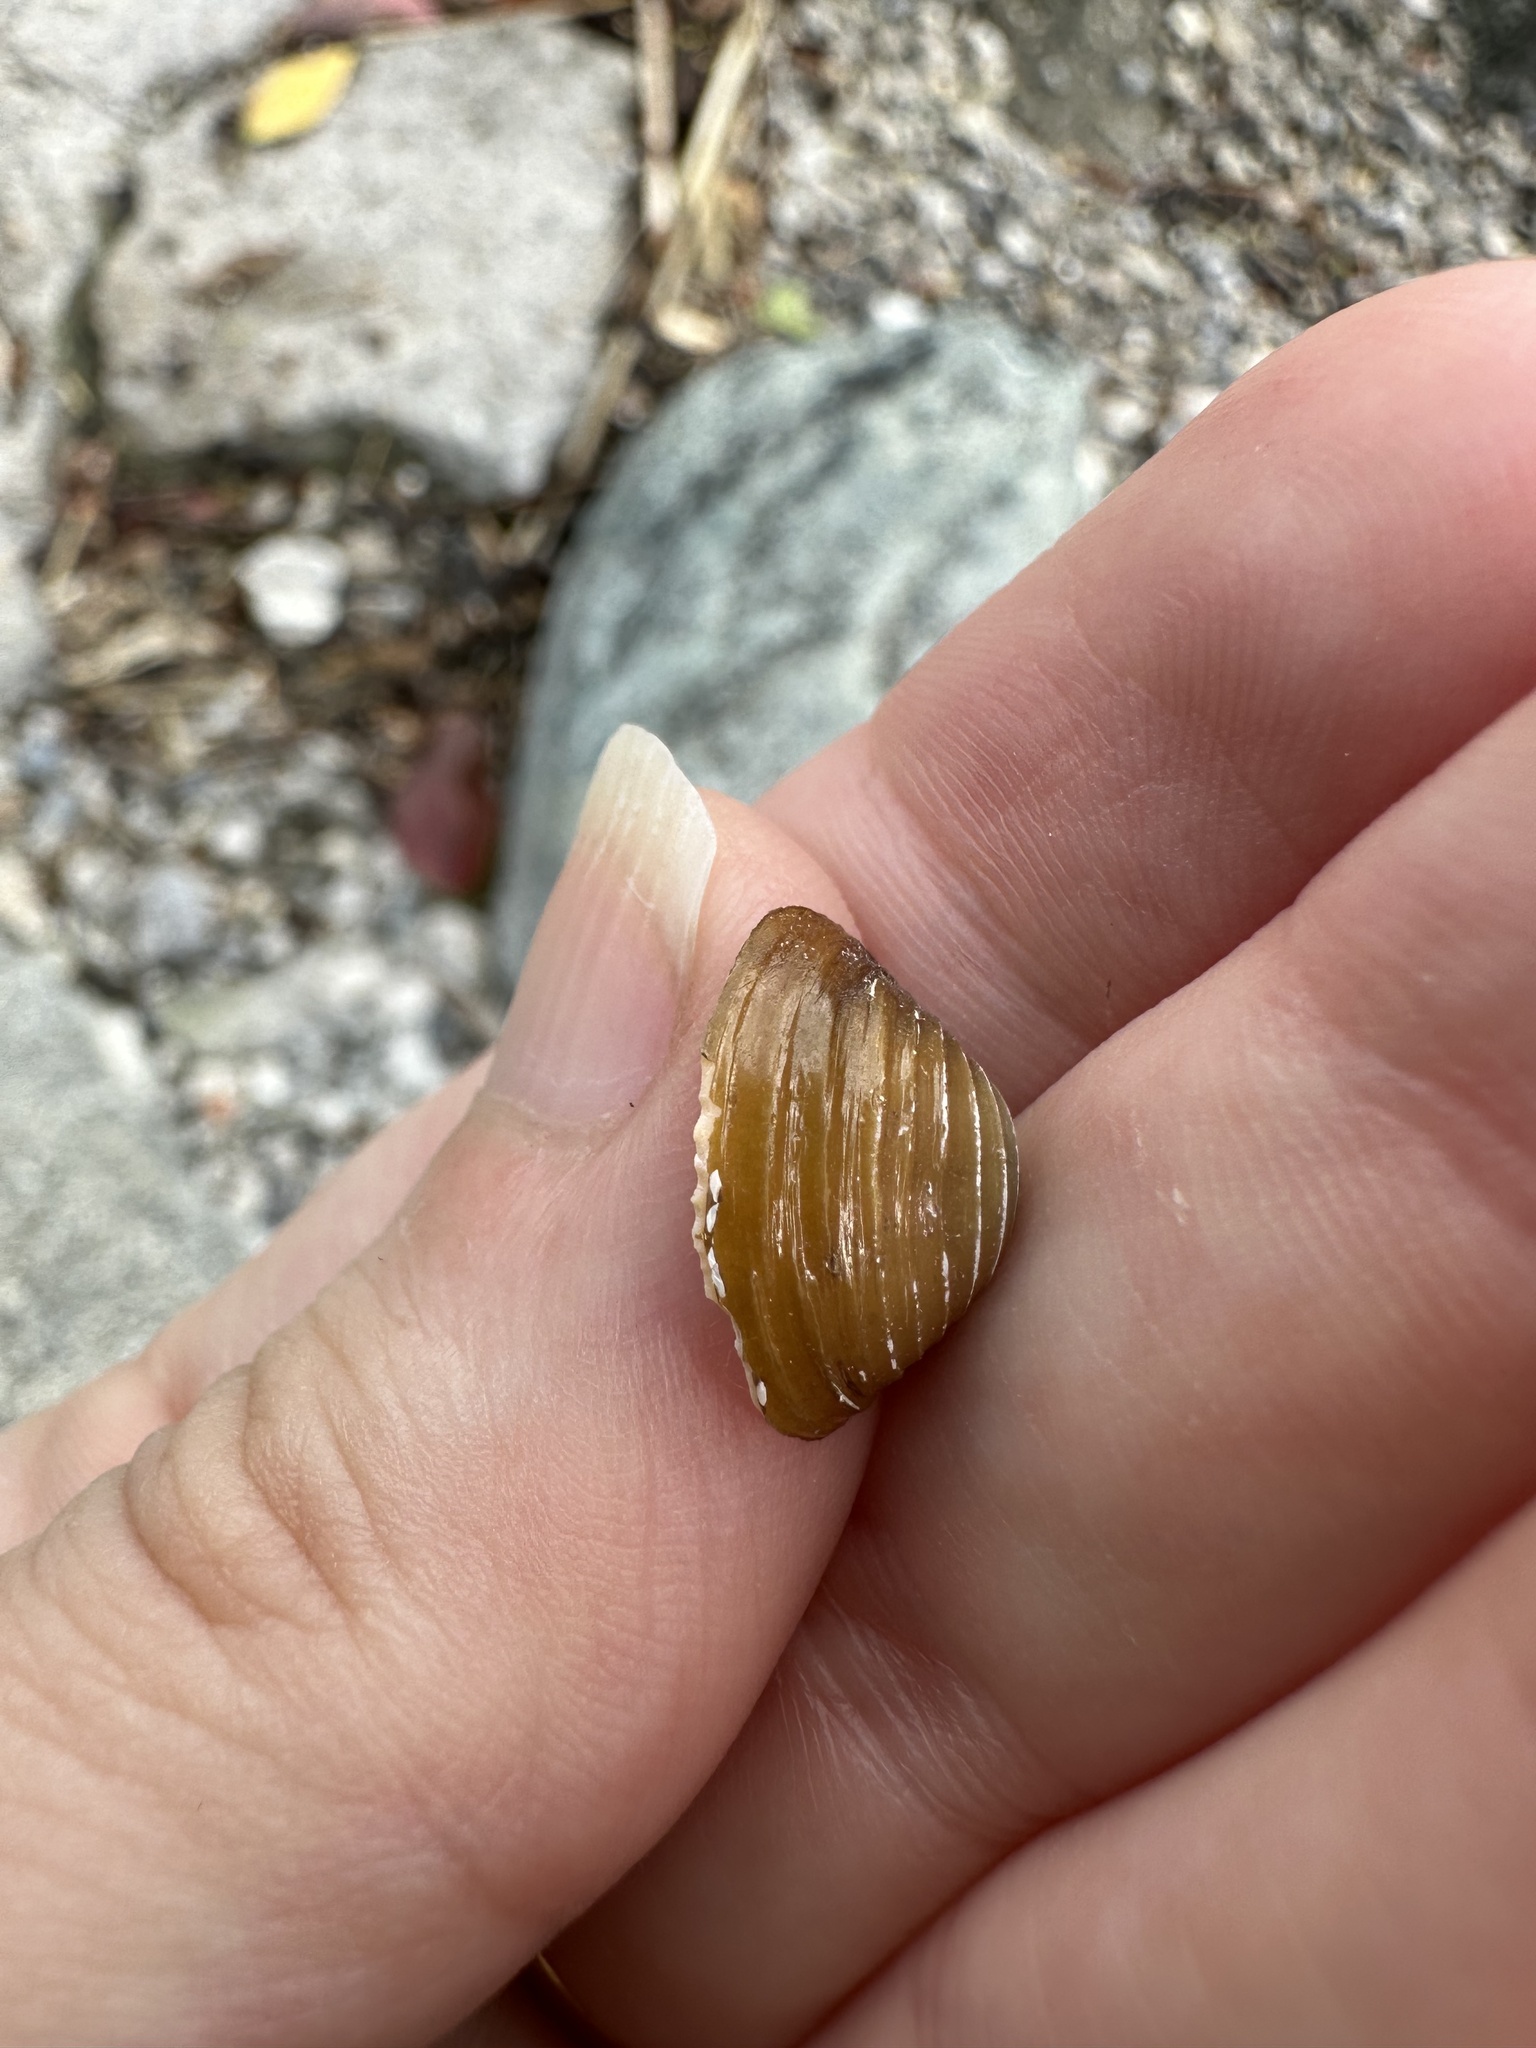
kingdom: Animalia
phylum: Mollusca
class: Bivalvia
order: Venerida
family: Cyrenidae
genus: Corbicula
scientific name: Corbicula fluminea
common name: Asian clam
